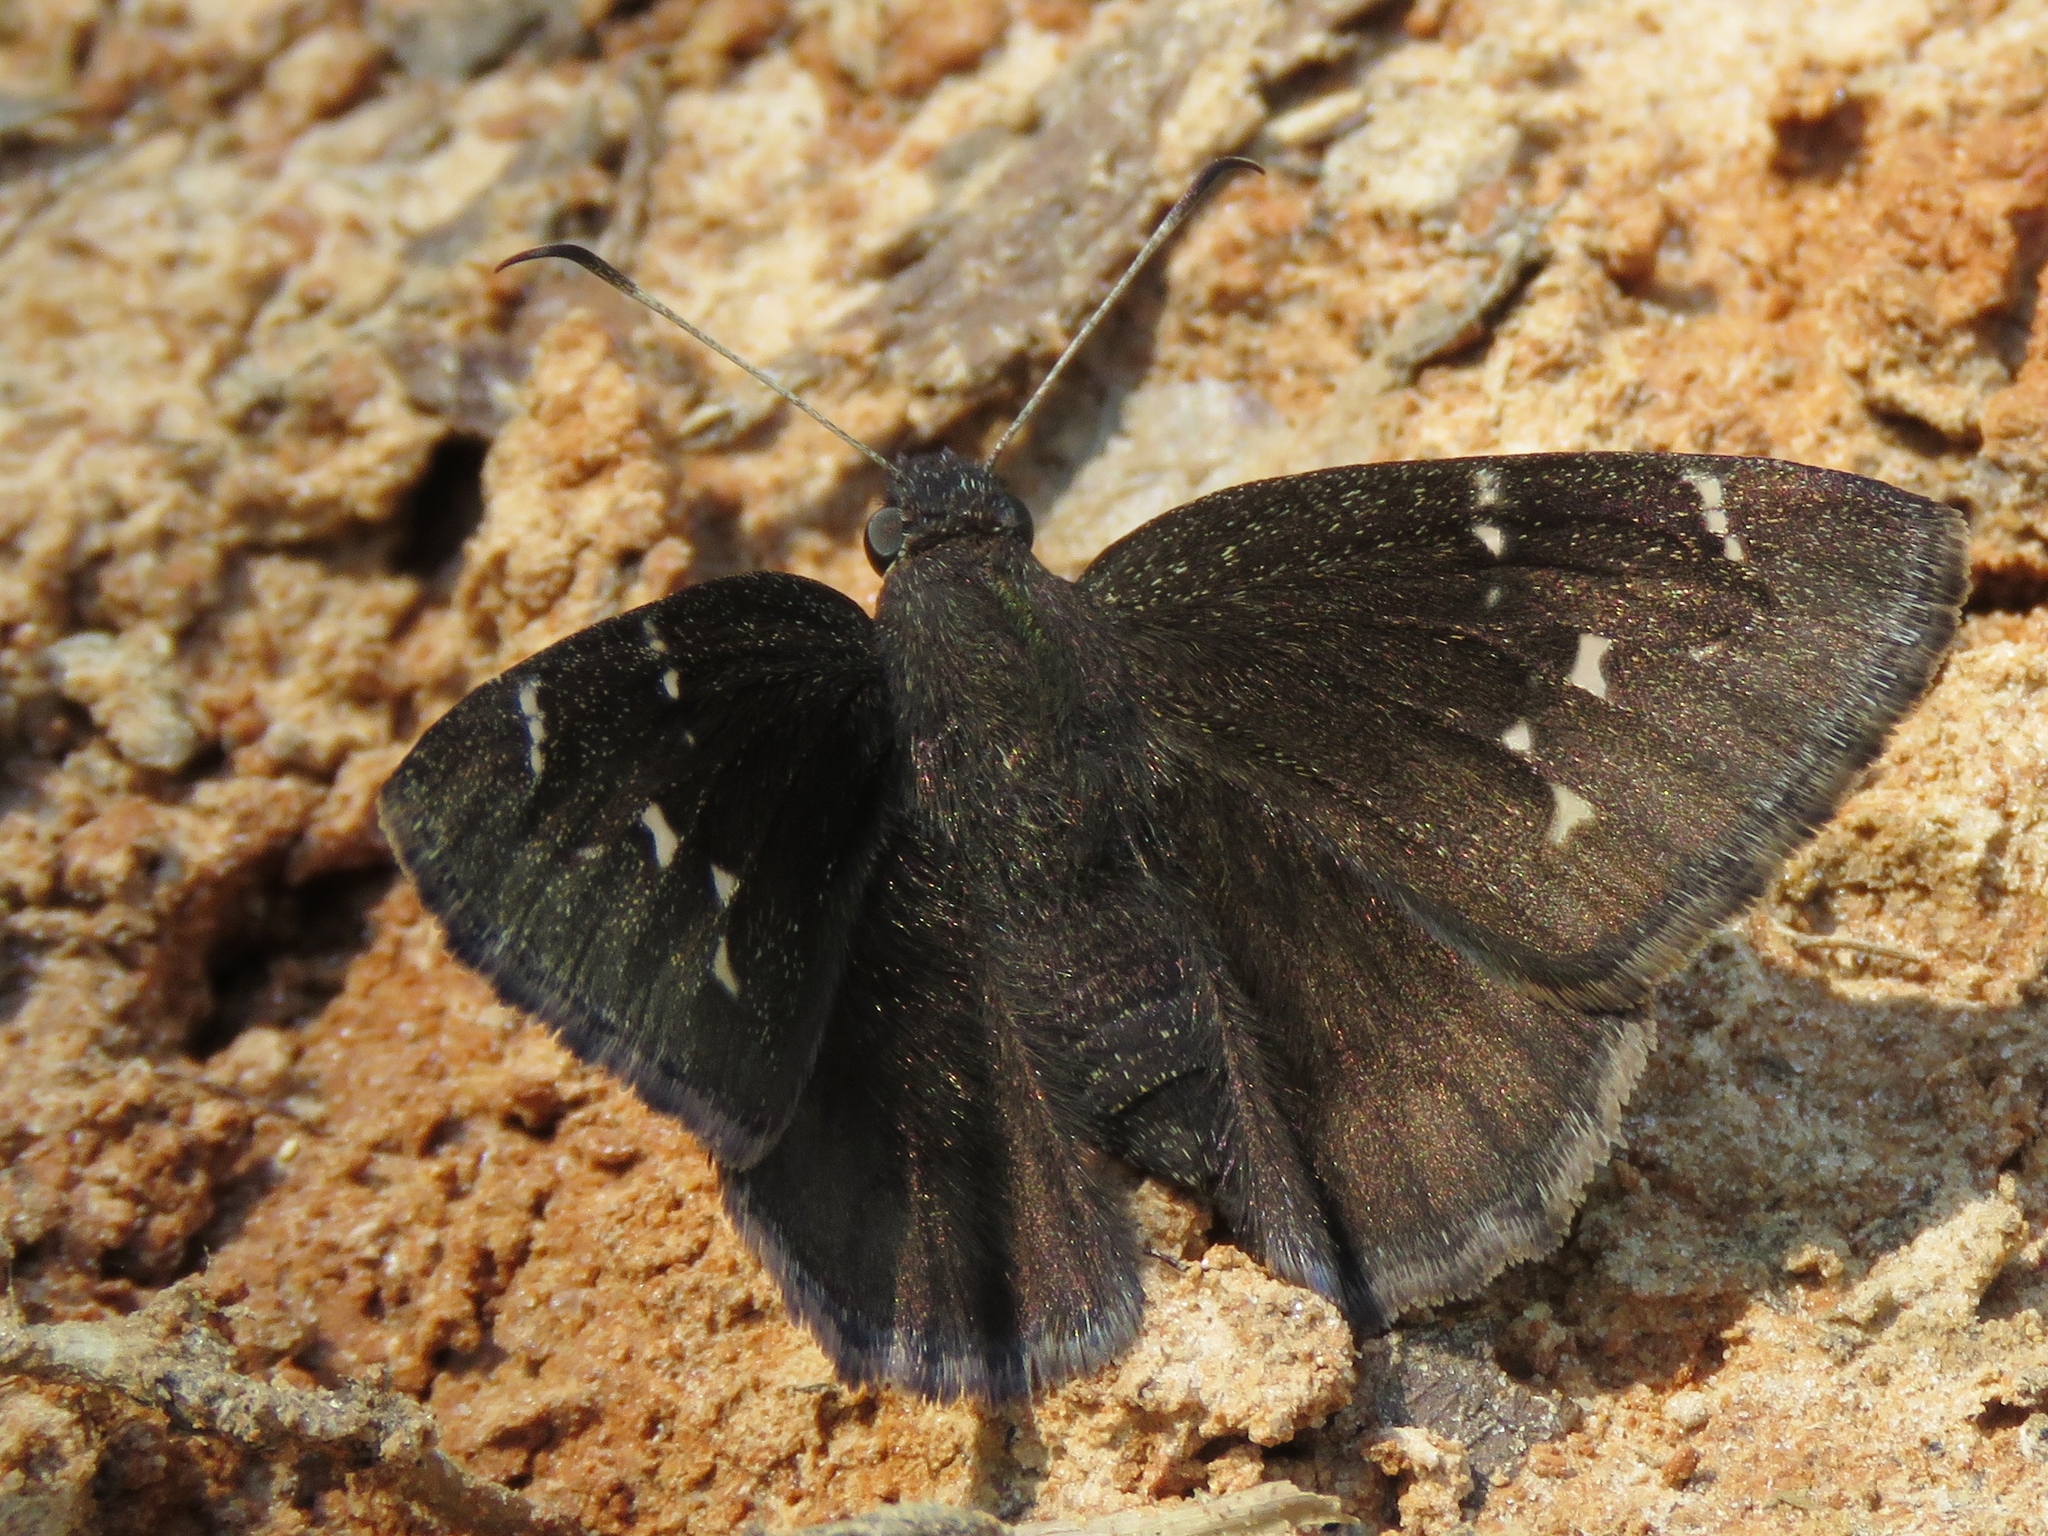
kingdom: Animalia
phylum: Arthropoda
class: Insecta
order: Lepidoptera
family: Hesperiidae
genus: Thorybes
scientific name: Thorybes pylades
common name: Northern cloudywing
